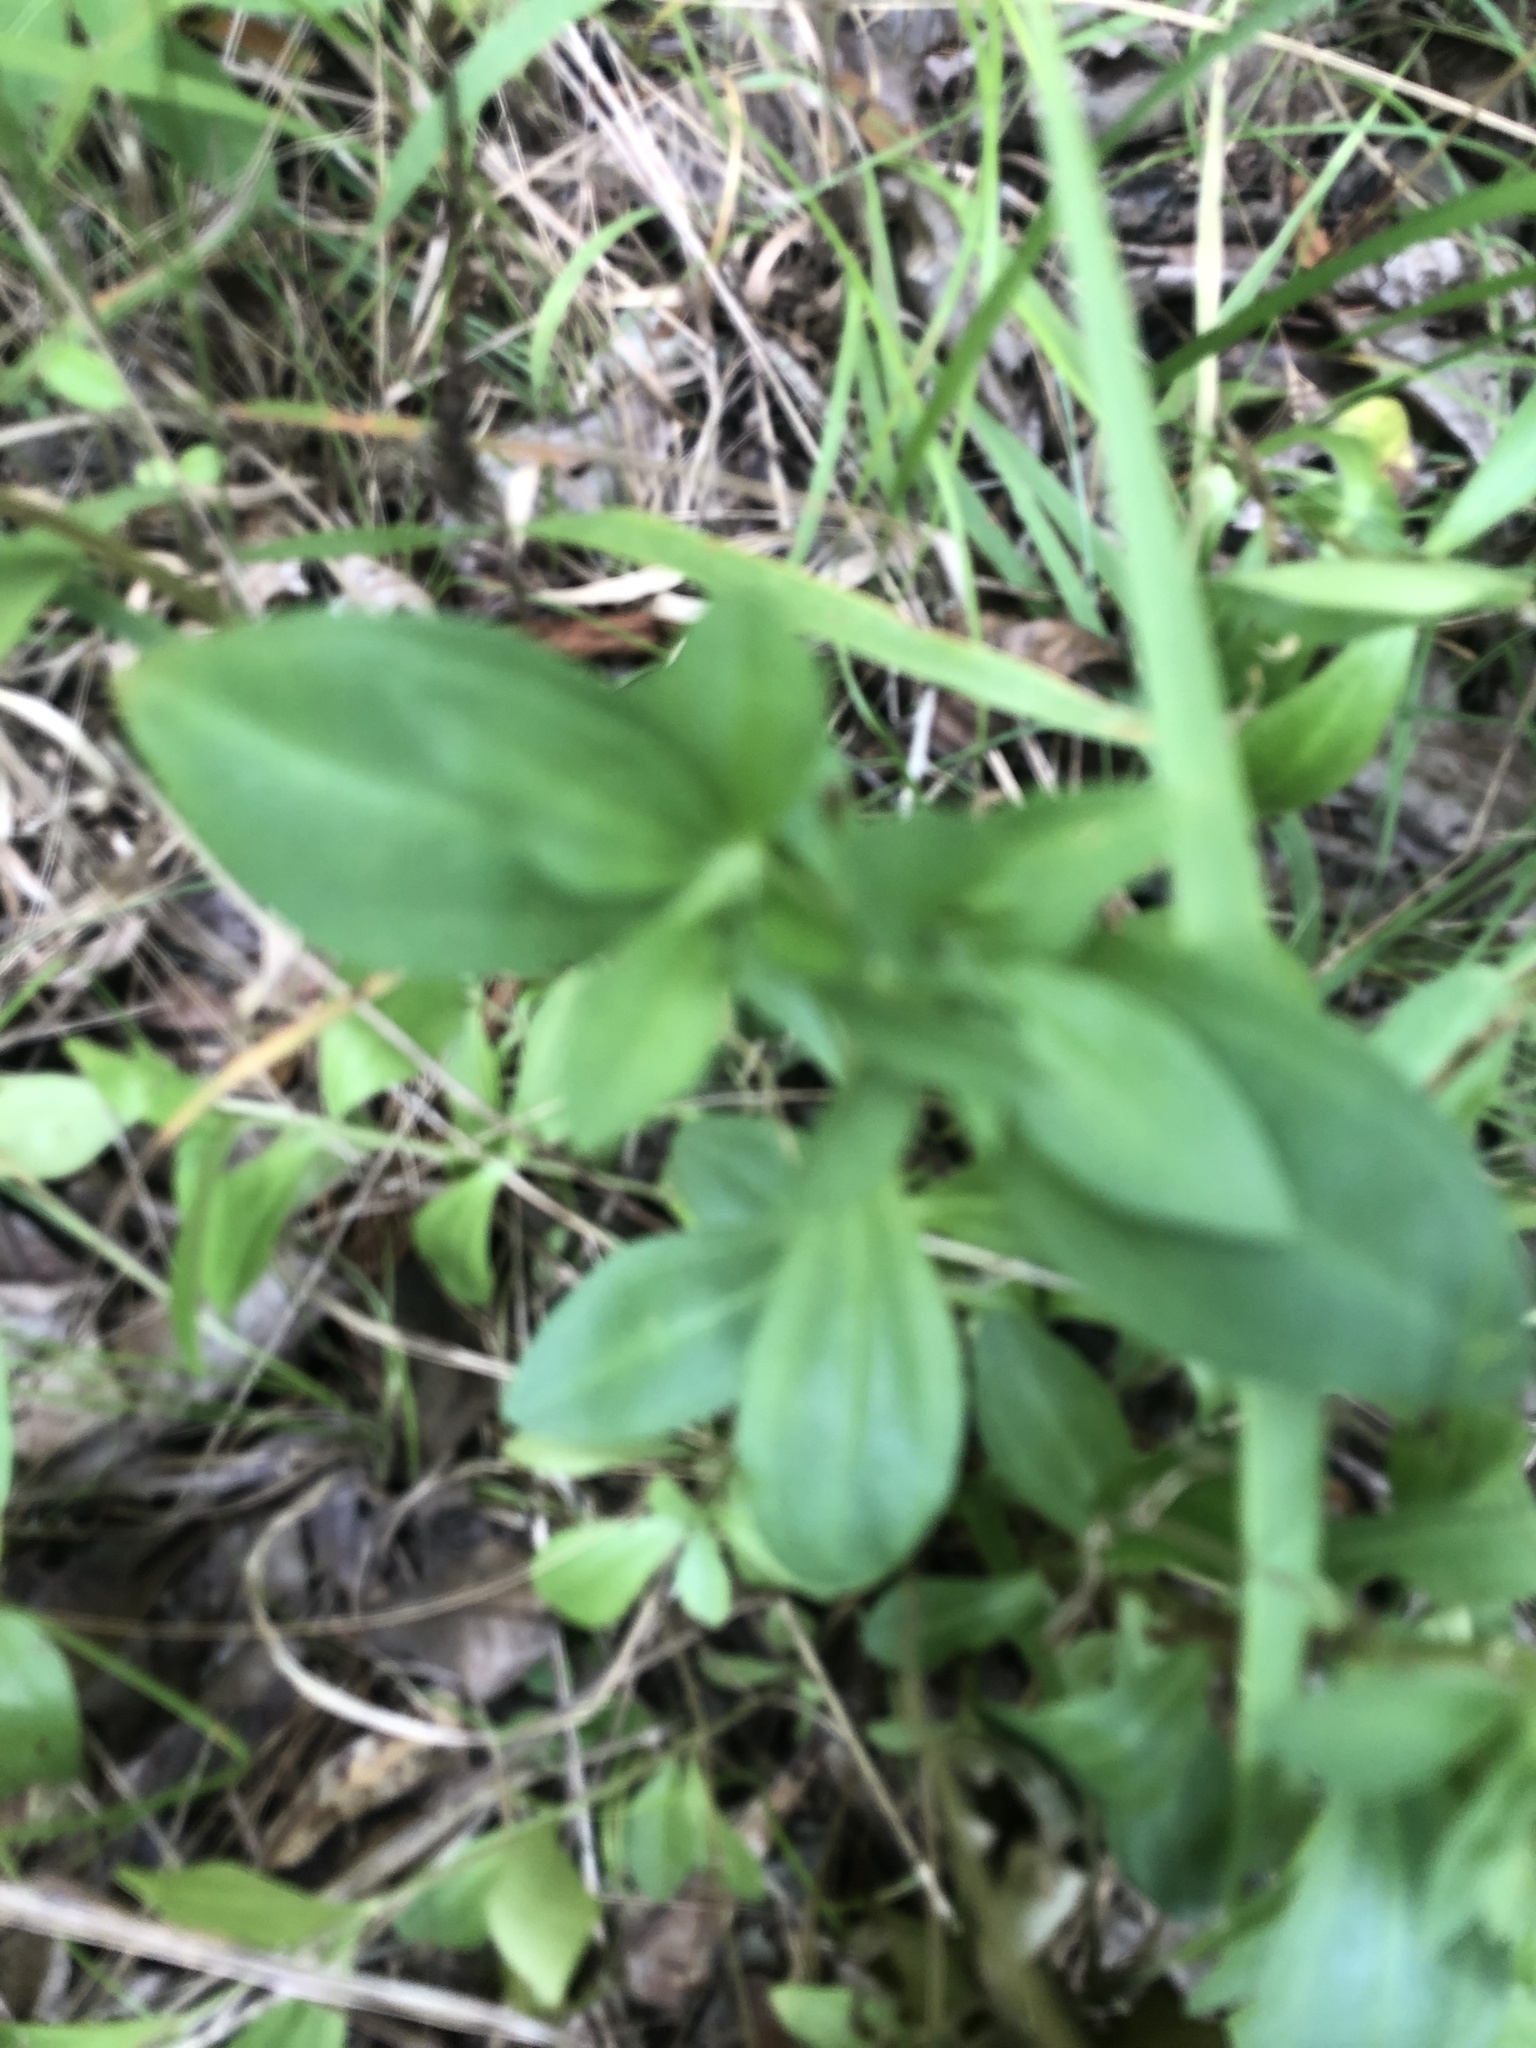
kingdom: Plantae
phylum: Tracheophyta
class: Magnoliopsida
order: Gentianales
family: Gentianaceae
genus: Gentiana
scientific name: Gentiana villosa
